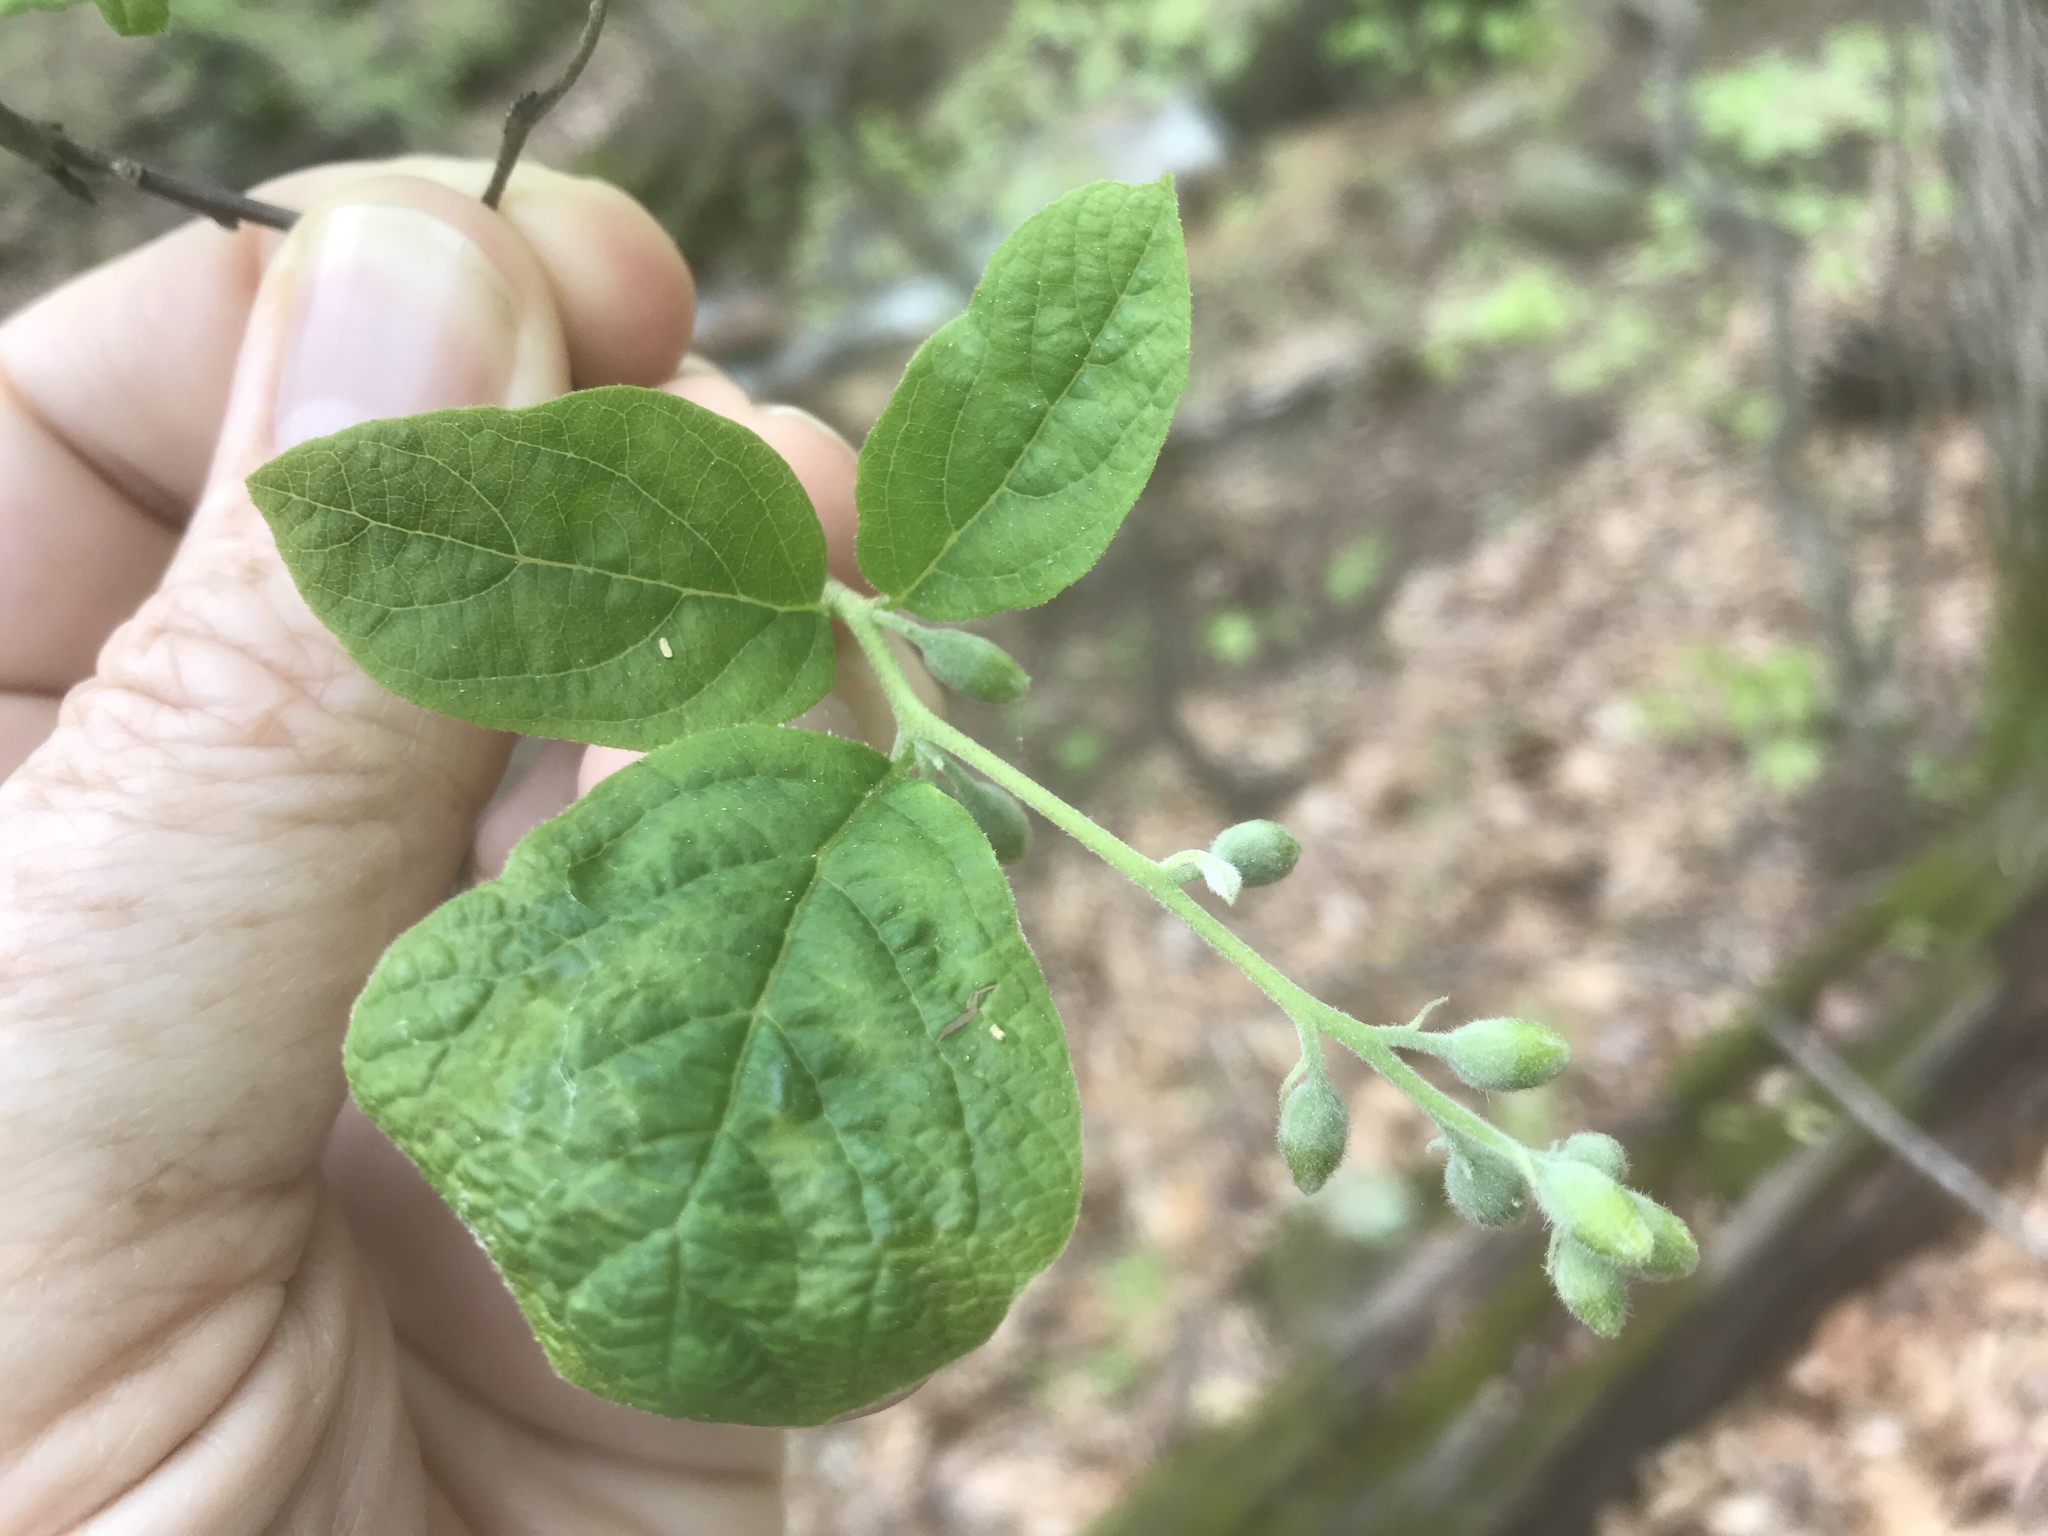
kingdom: Plantae
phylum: Tracheophyta
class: Magnoliopsida
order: Ericales
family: Styracaceae
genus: Styrax
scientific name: Styrax grandifolius
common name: Big-leaf snowbell
